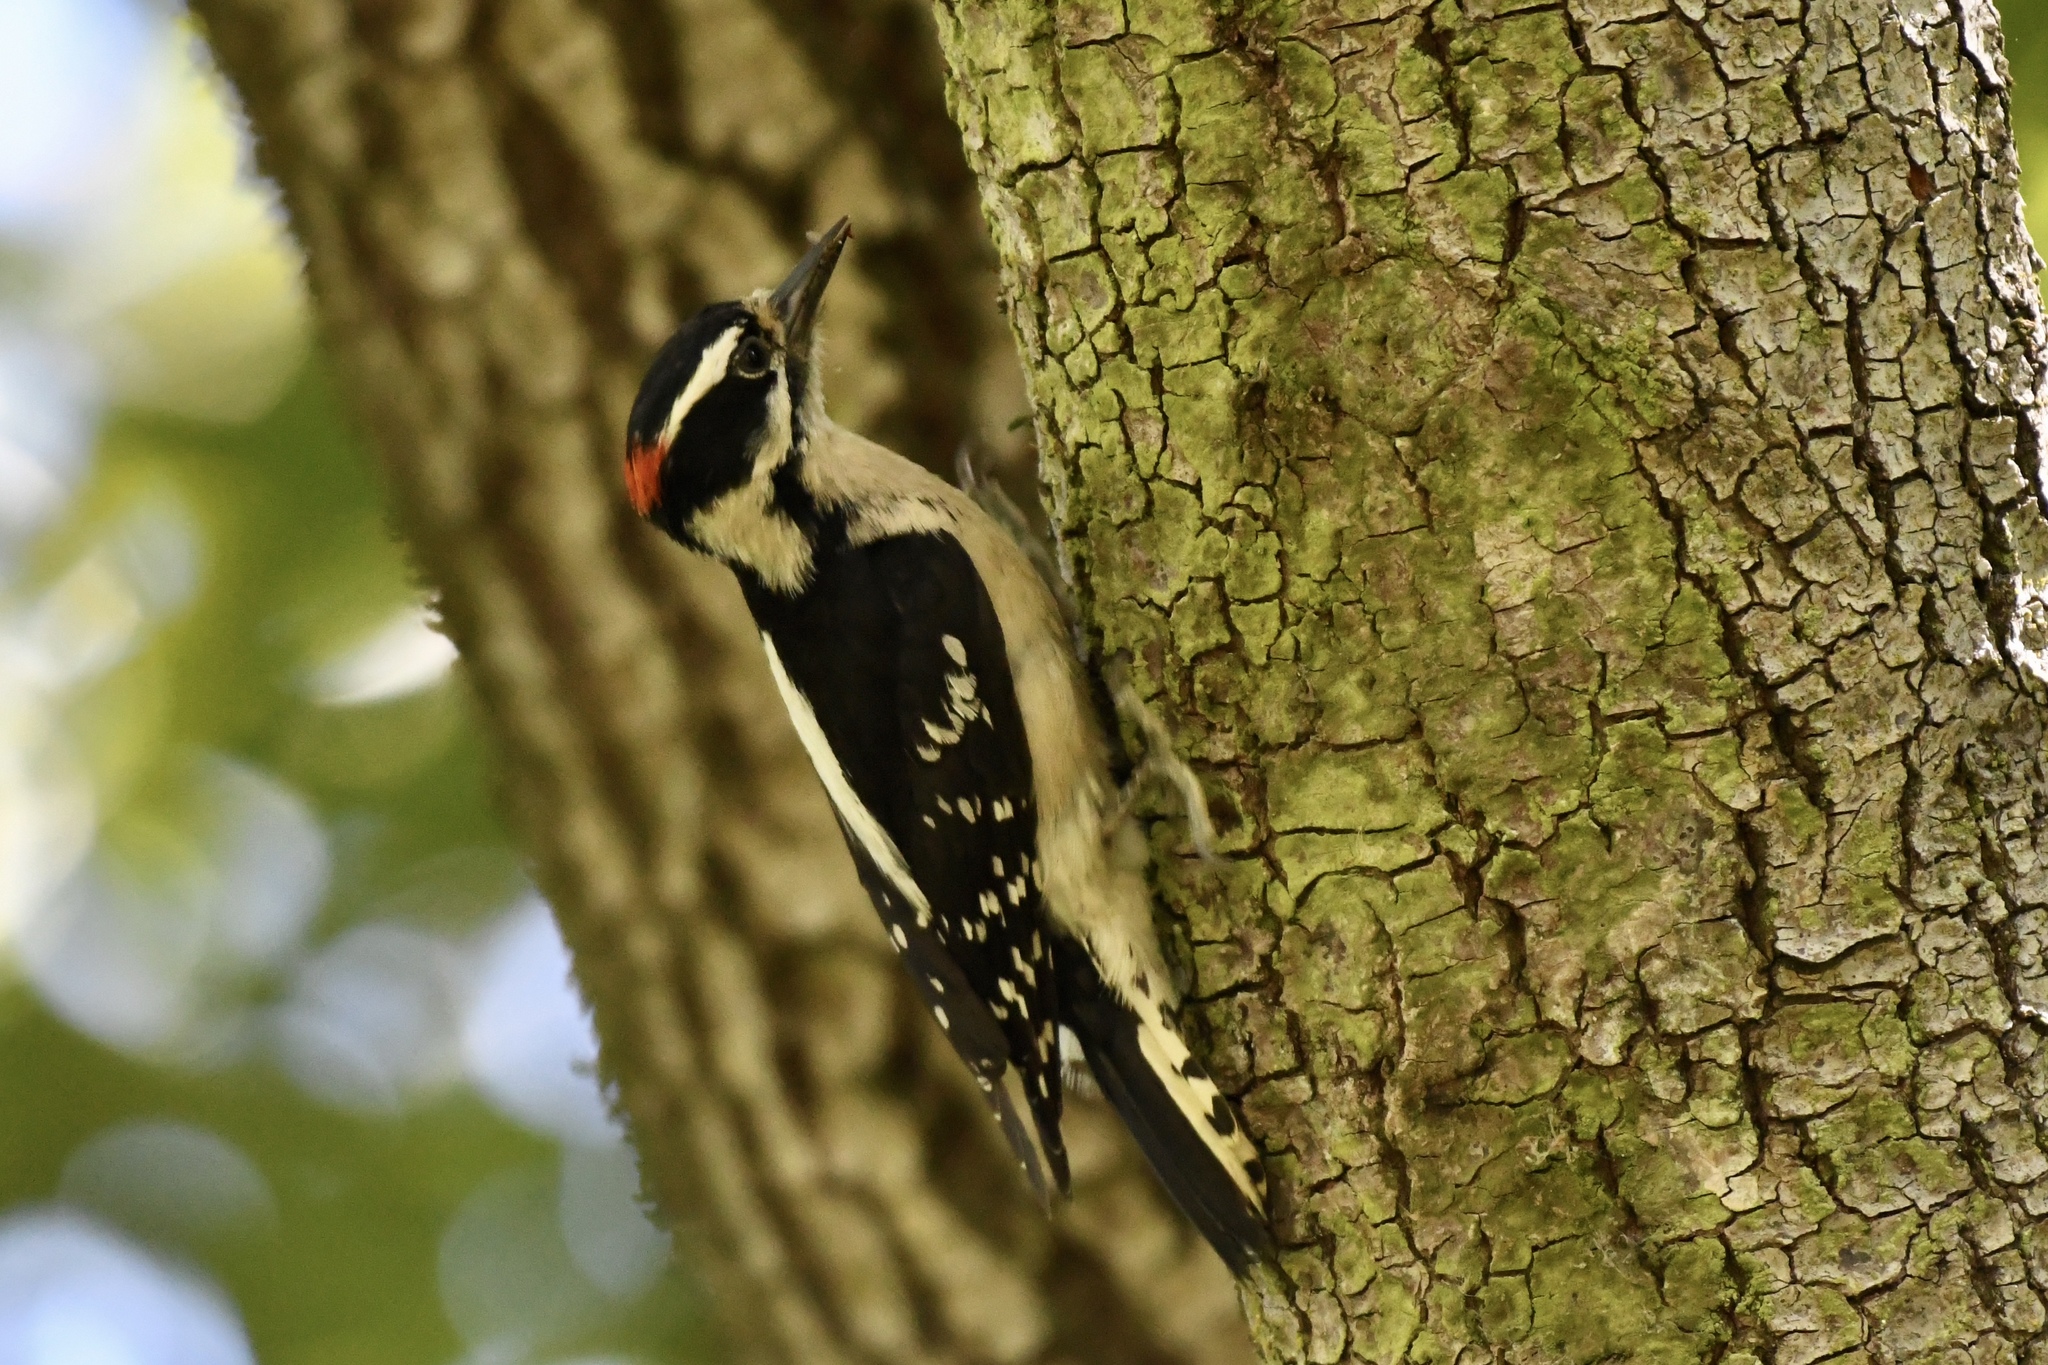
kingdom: Animalia
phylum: Chordata
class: Aves
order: Piciformes
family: Picidae
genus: Dryobates
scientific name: Dryobates pubescens
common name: Downy woodpecker
